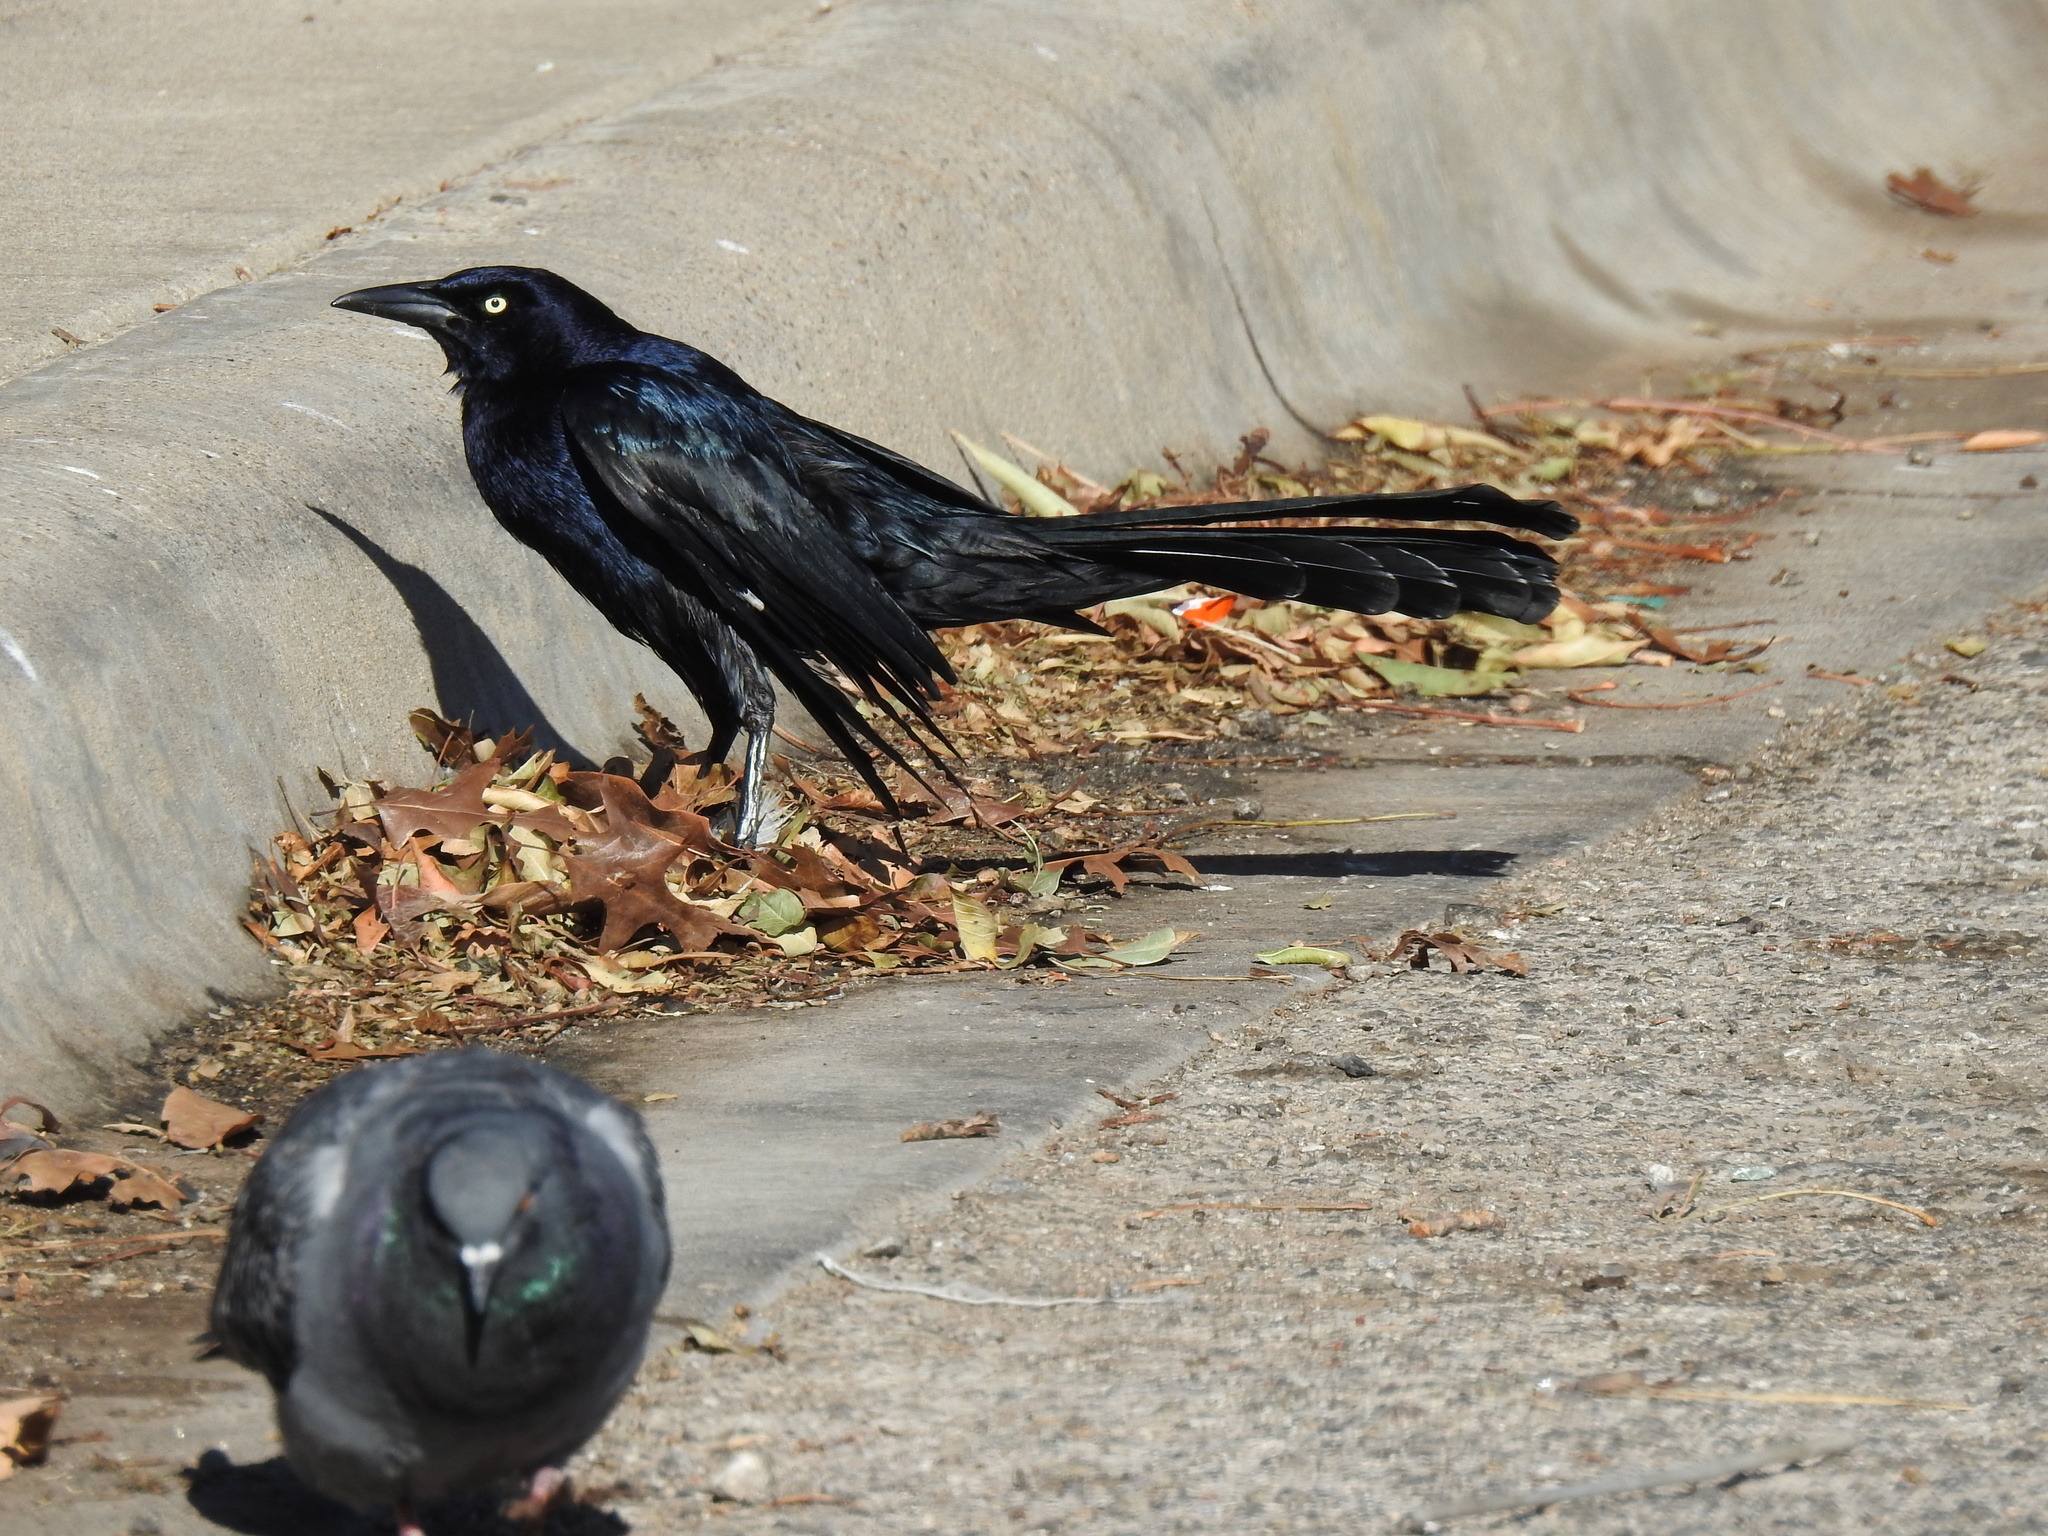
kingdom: Animalia
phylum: Chordata
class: Aves
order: Passeriformes
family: Icteridae
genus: Quiscalus
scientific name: Quiscalus mexicanus
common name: Great-tailed grackle
